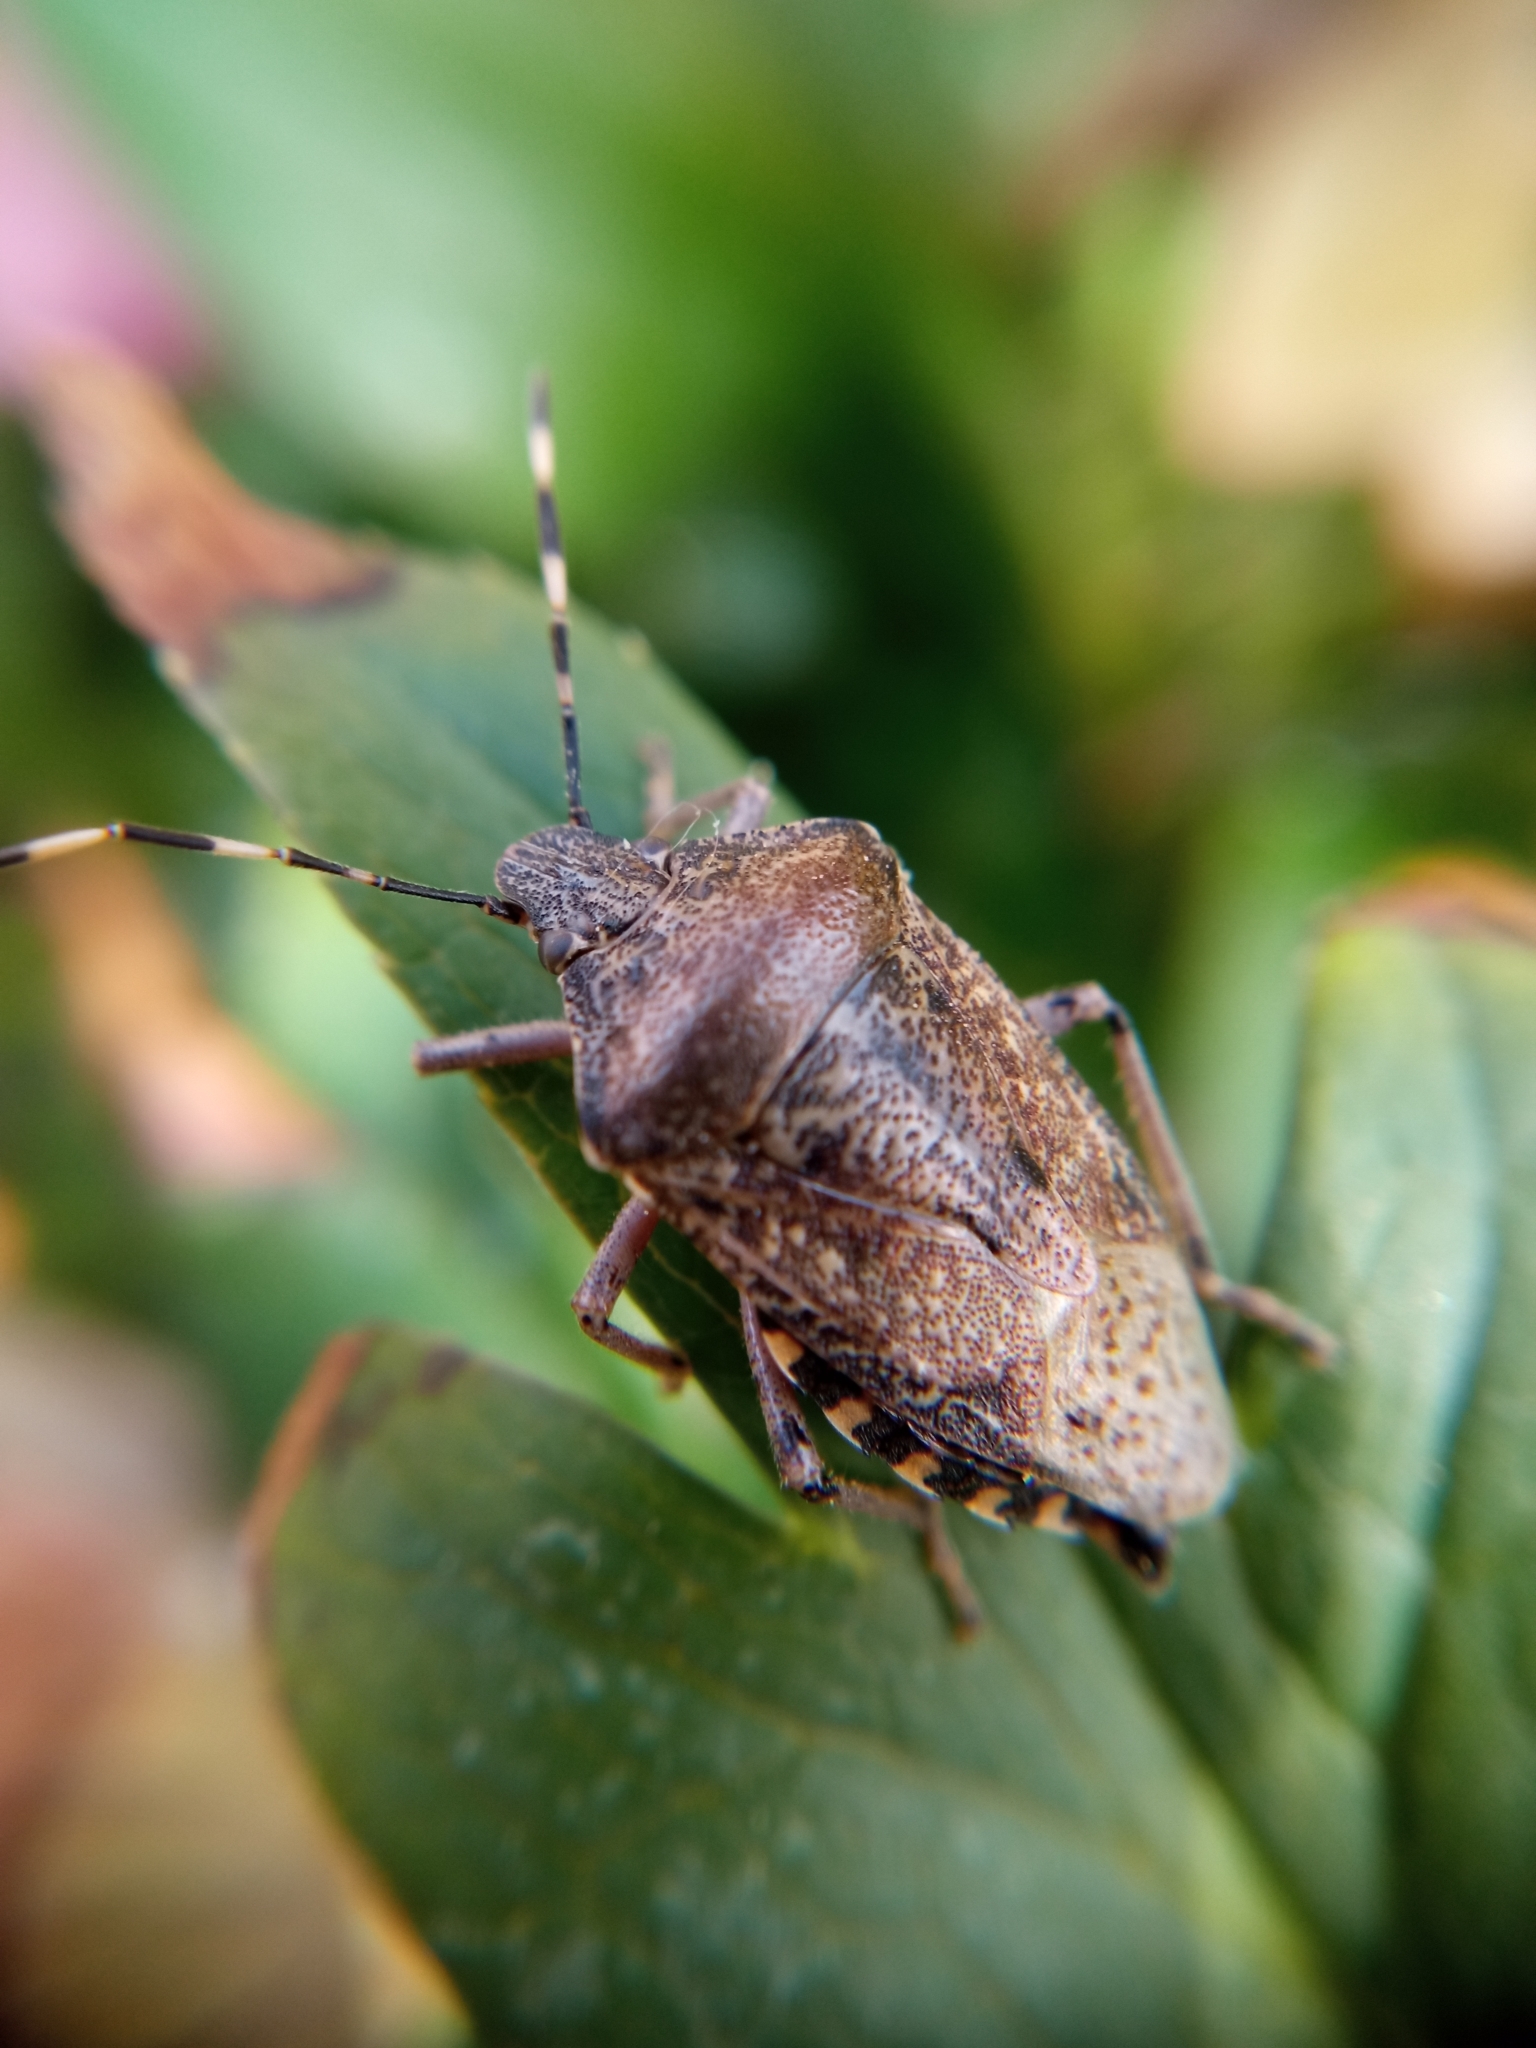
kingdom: Animalia
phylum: Arthropoda
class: Insecta
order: Hemiptera
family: Pentatomidae
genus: Rhaphigaster
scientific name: Rhaphigaster nebulosa
